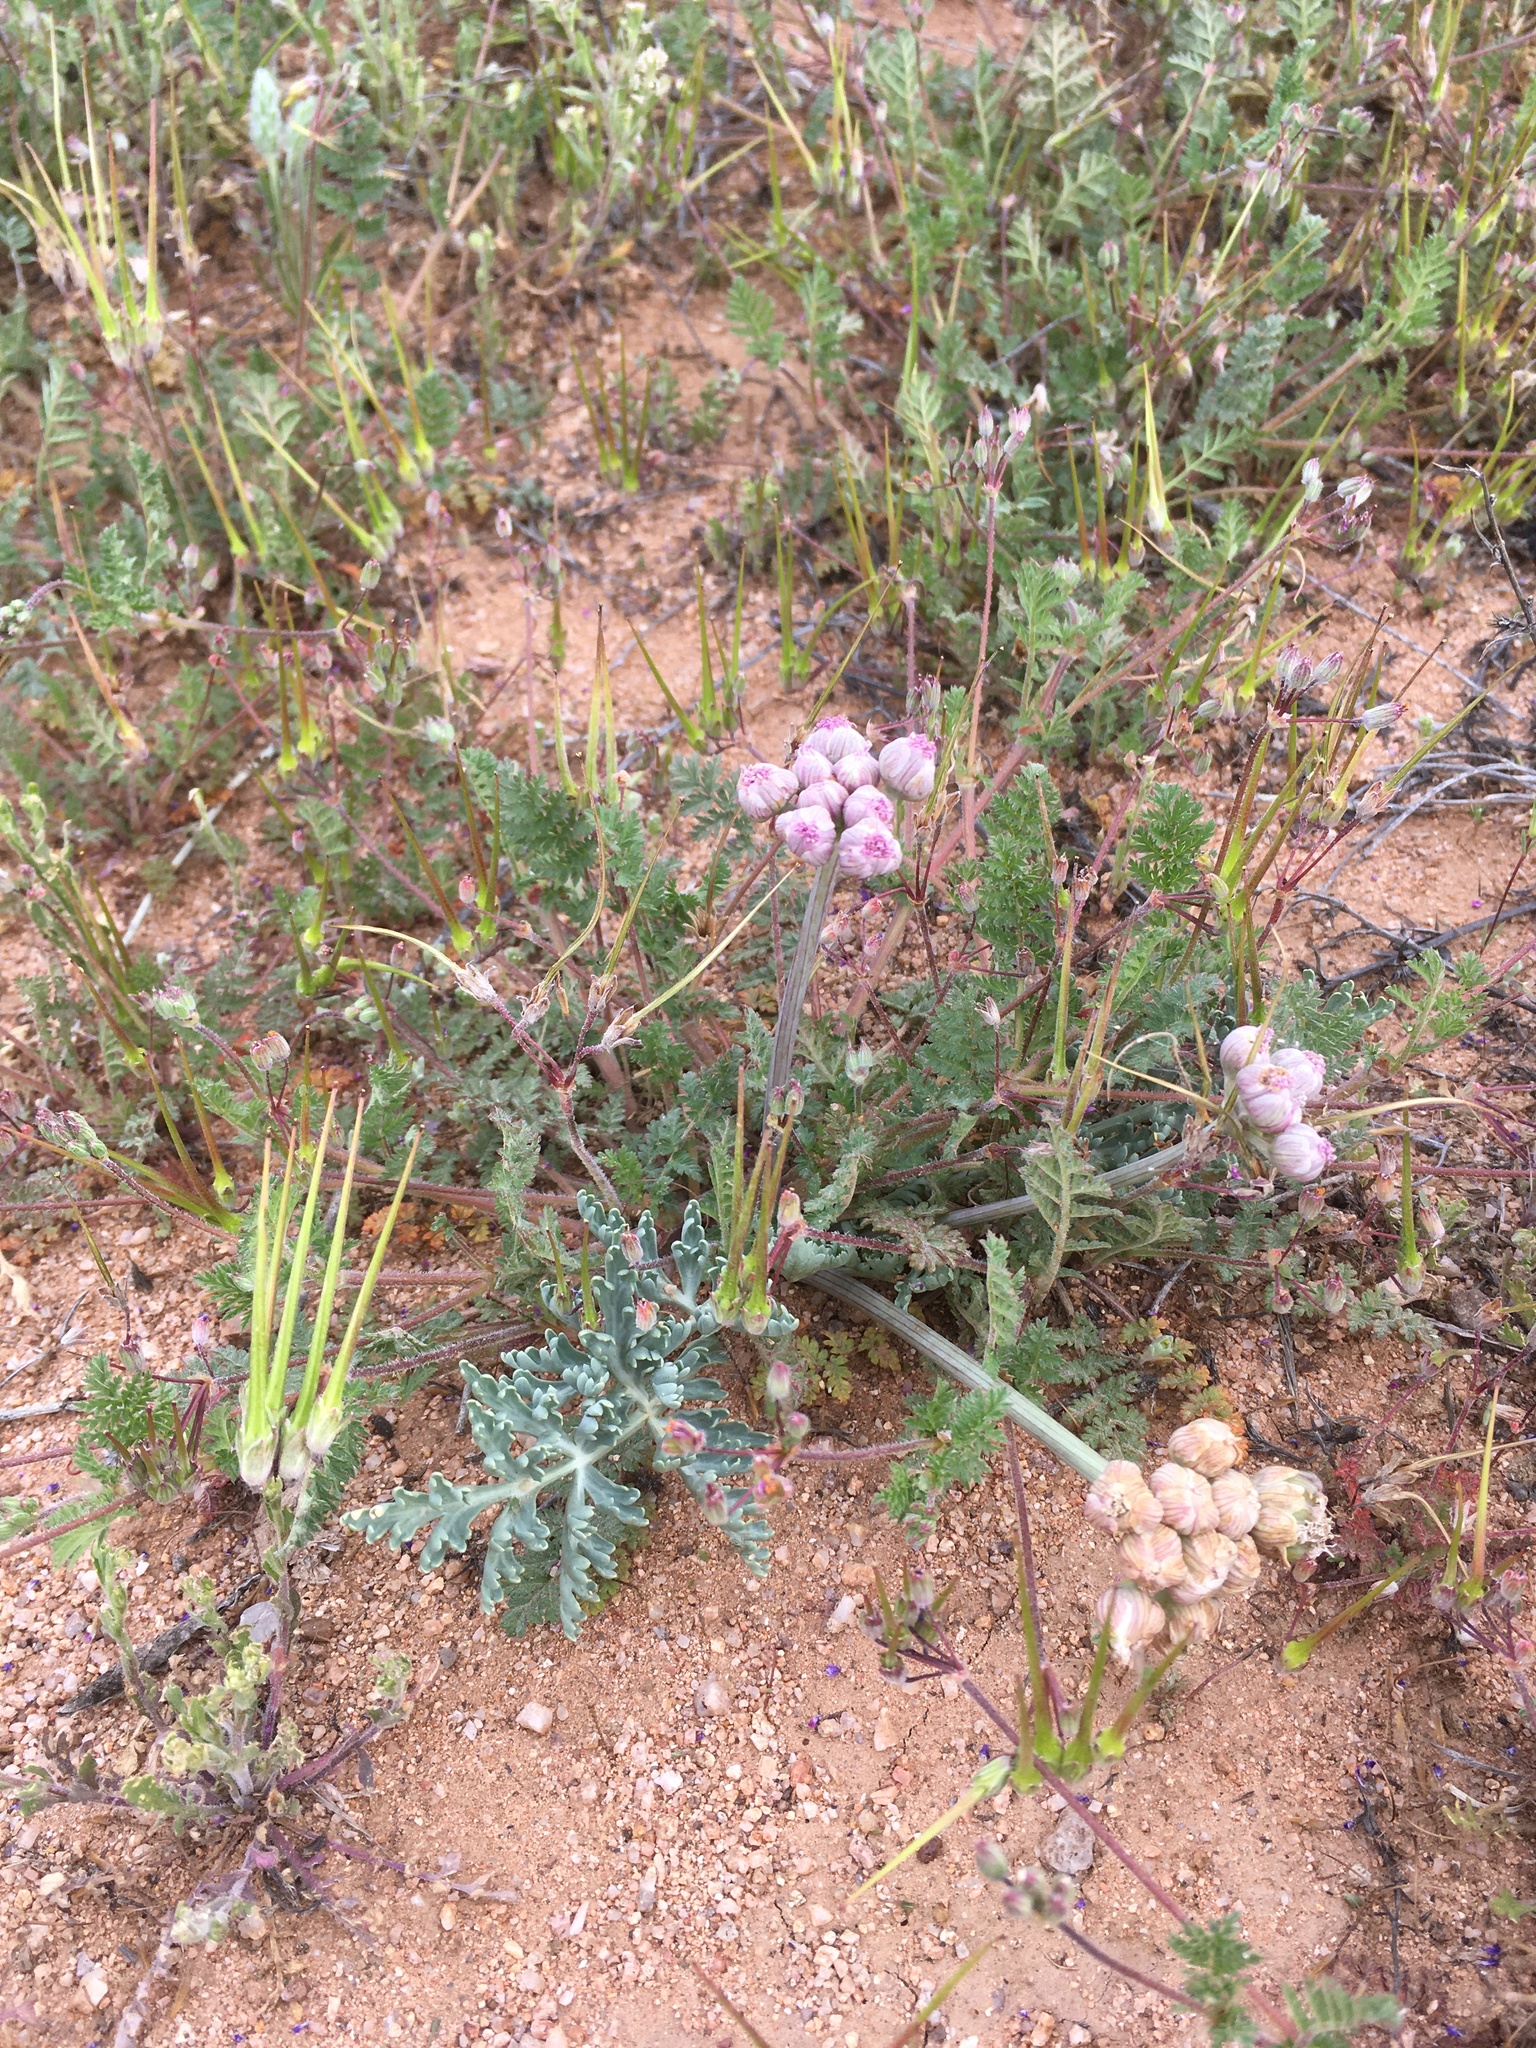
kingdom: Plantae
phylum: Tracheophyta
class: Magnoliopsida
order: Apiales
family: Apiaceae
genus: Vesper
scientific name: Vesper multinervatus
